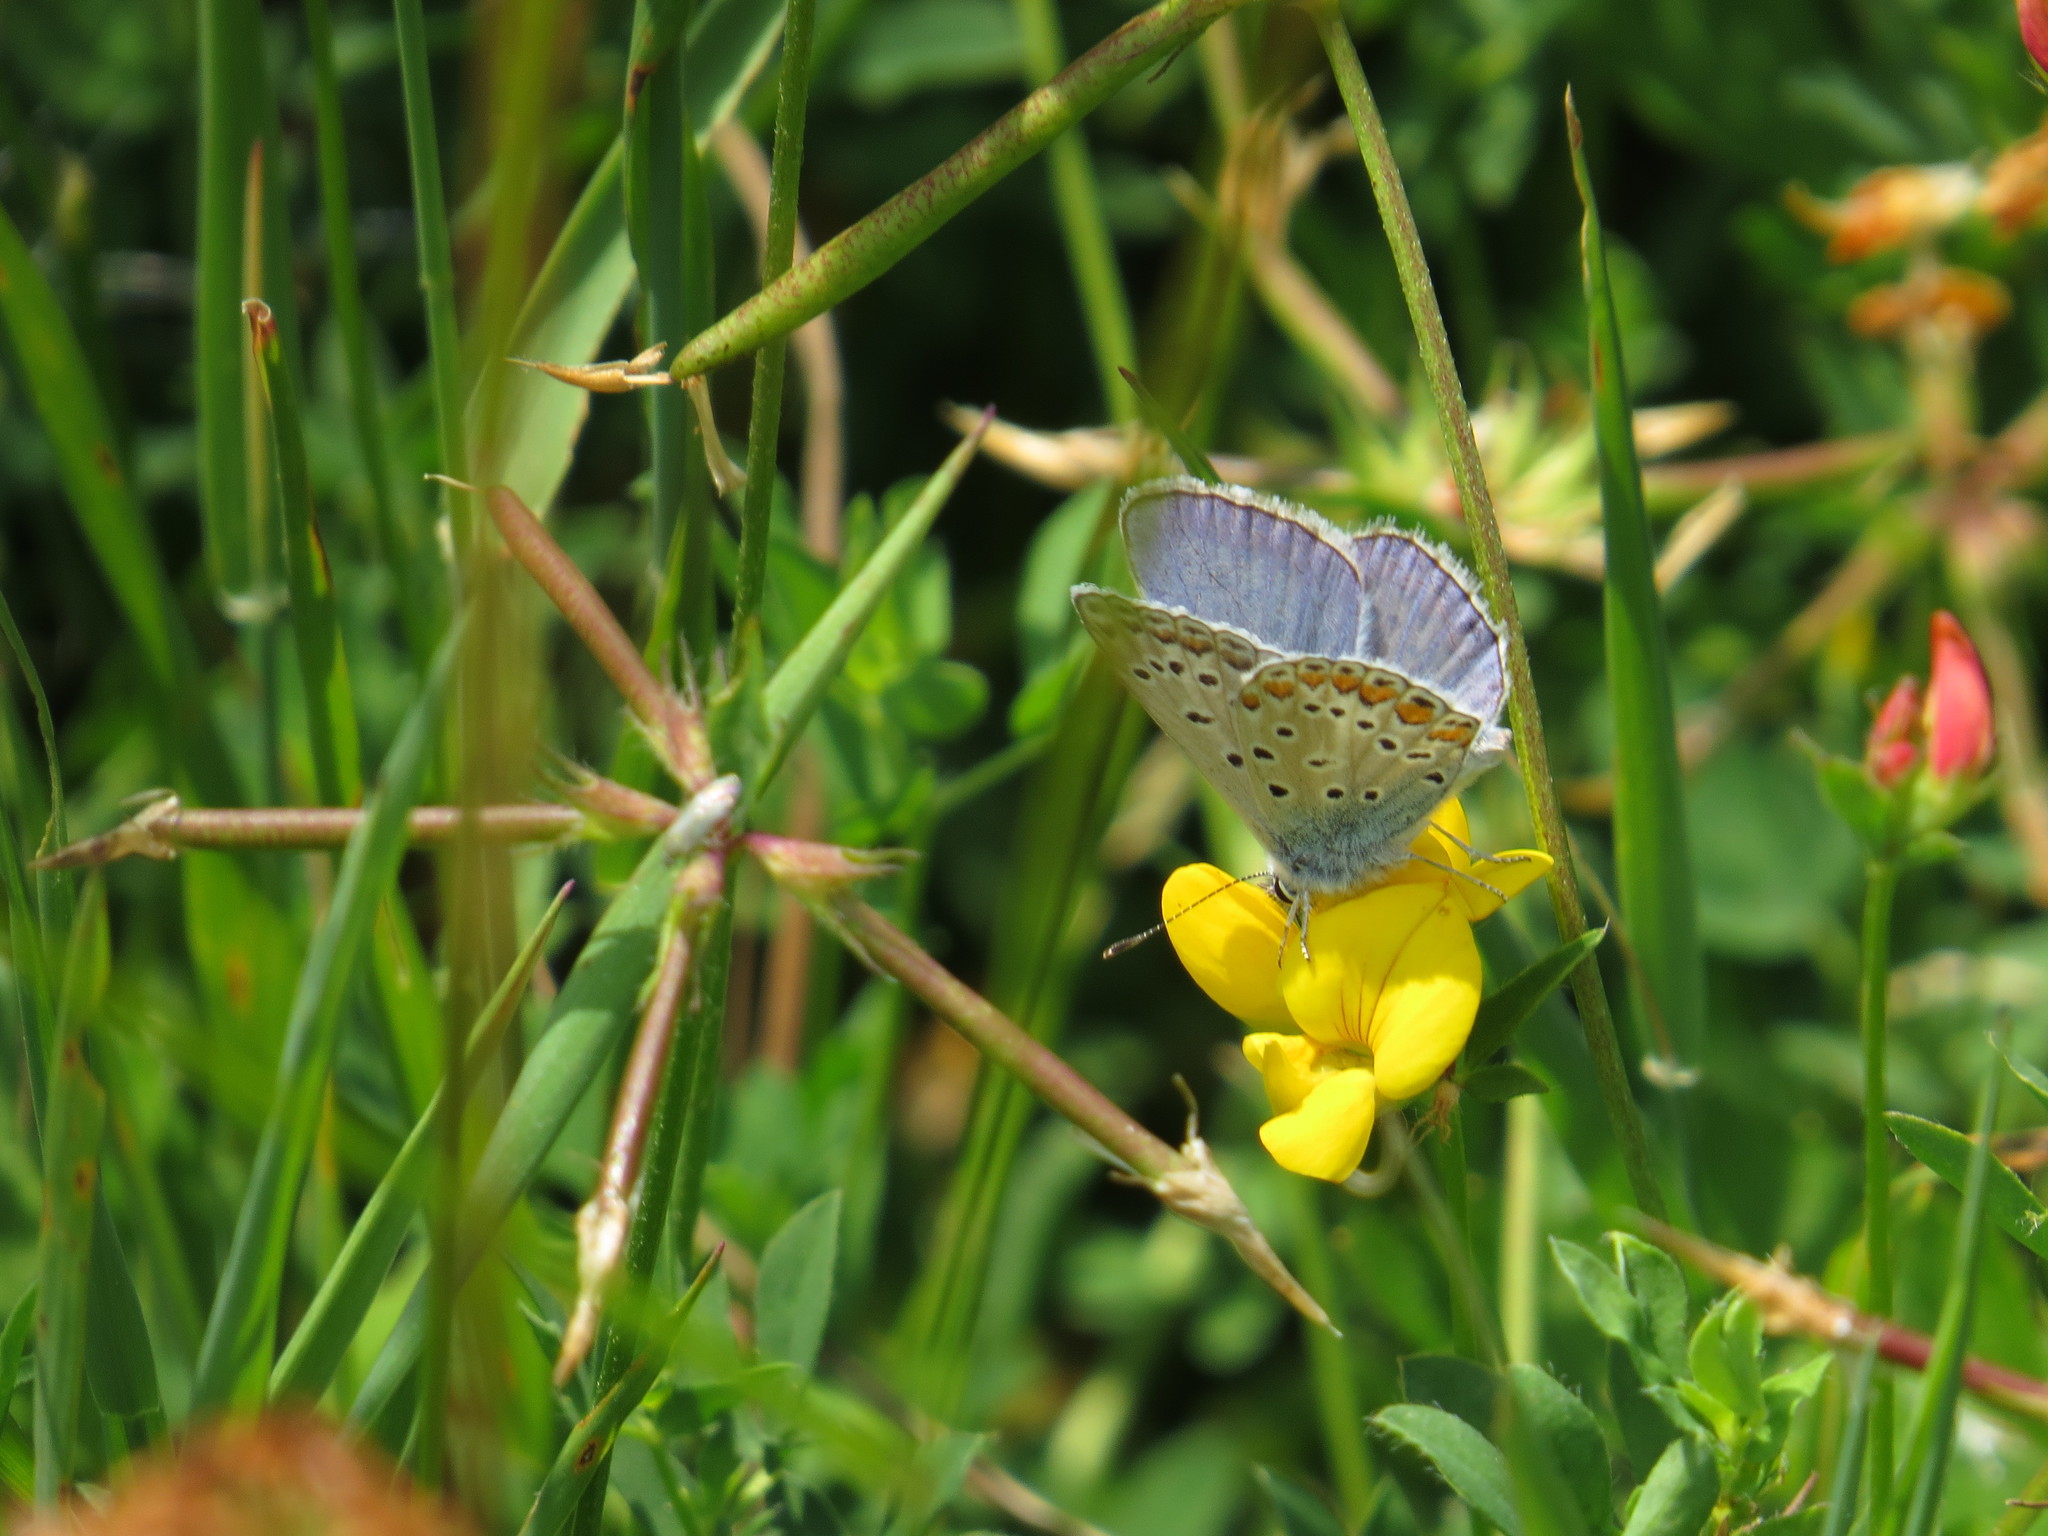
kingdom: Animalia
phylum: Arthropoda
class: Insecta
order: Lepidoptera
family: Lycaenidae
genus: Polyommatus
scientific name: Polyommatus icarus
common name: Common blue
